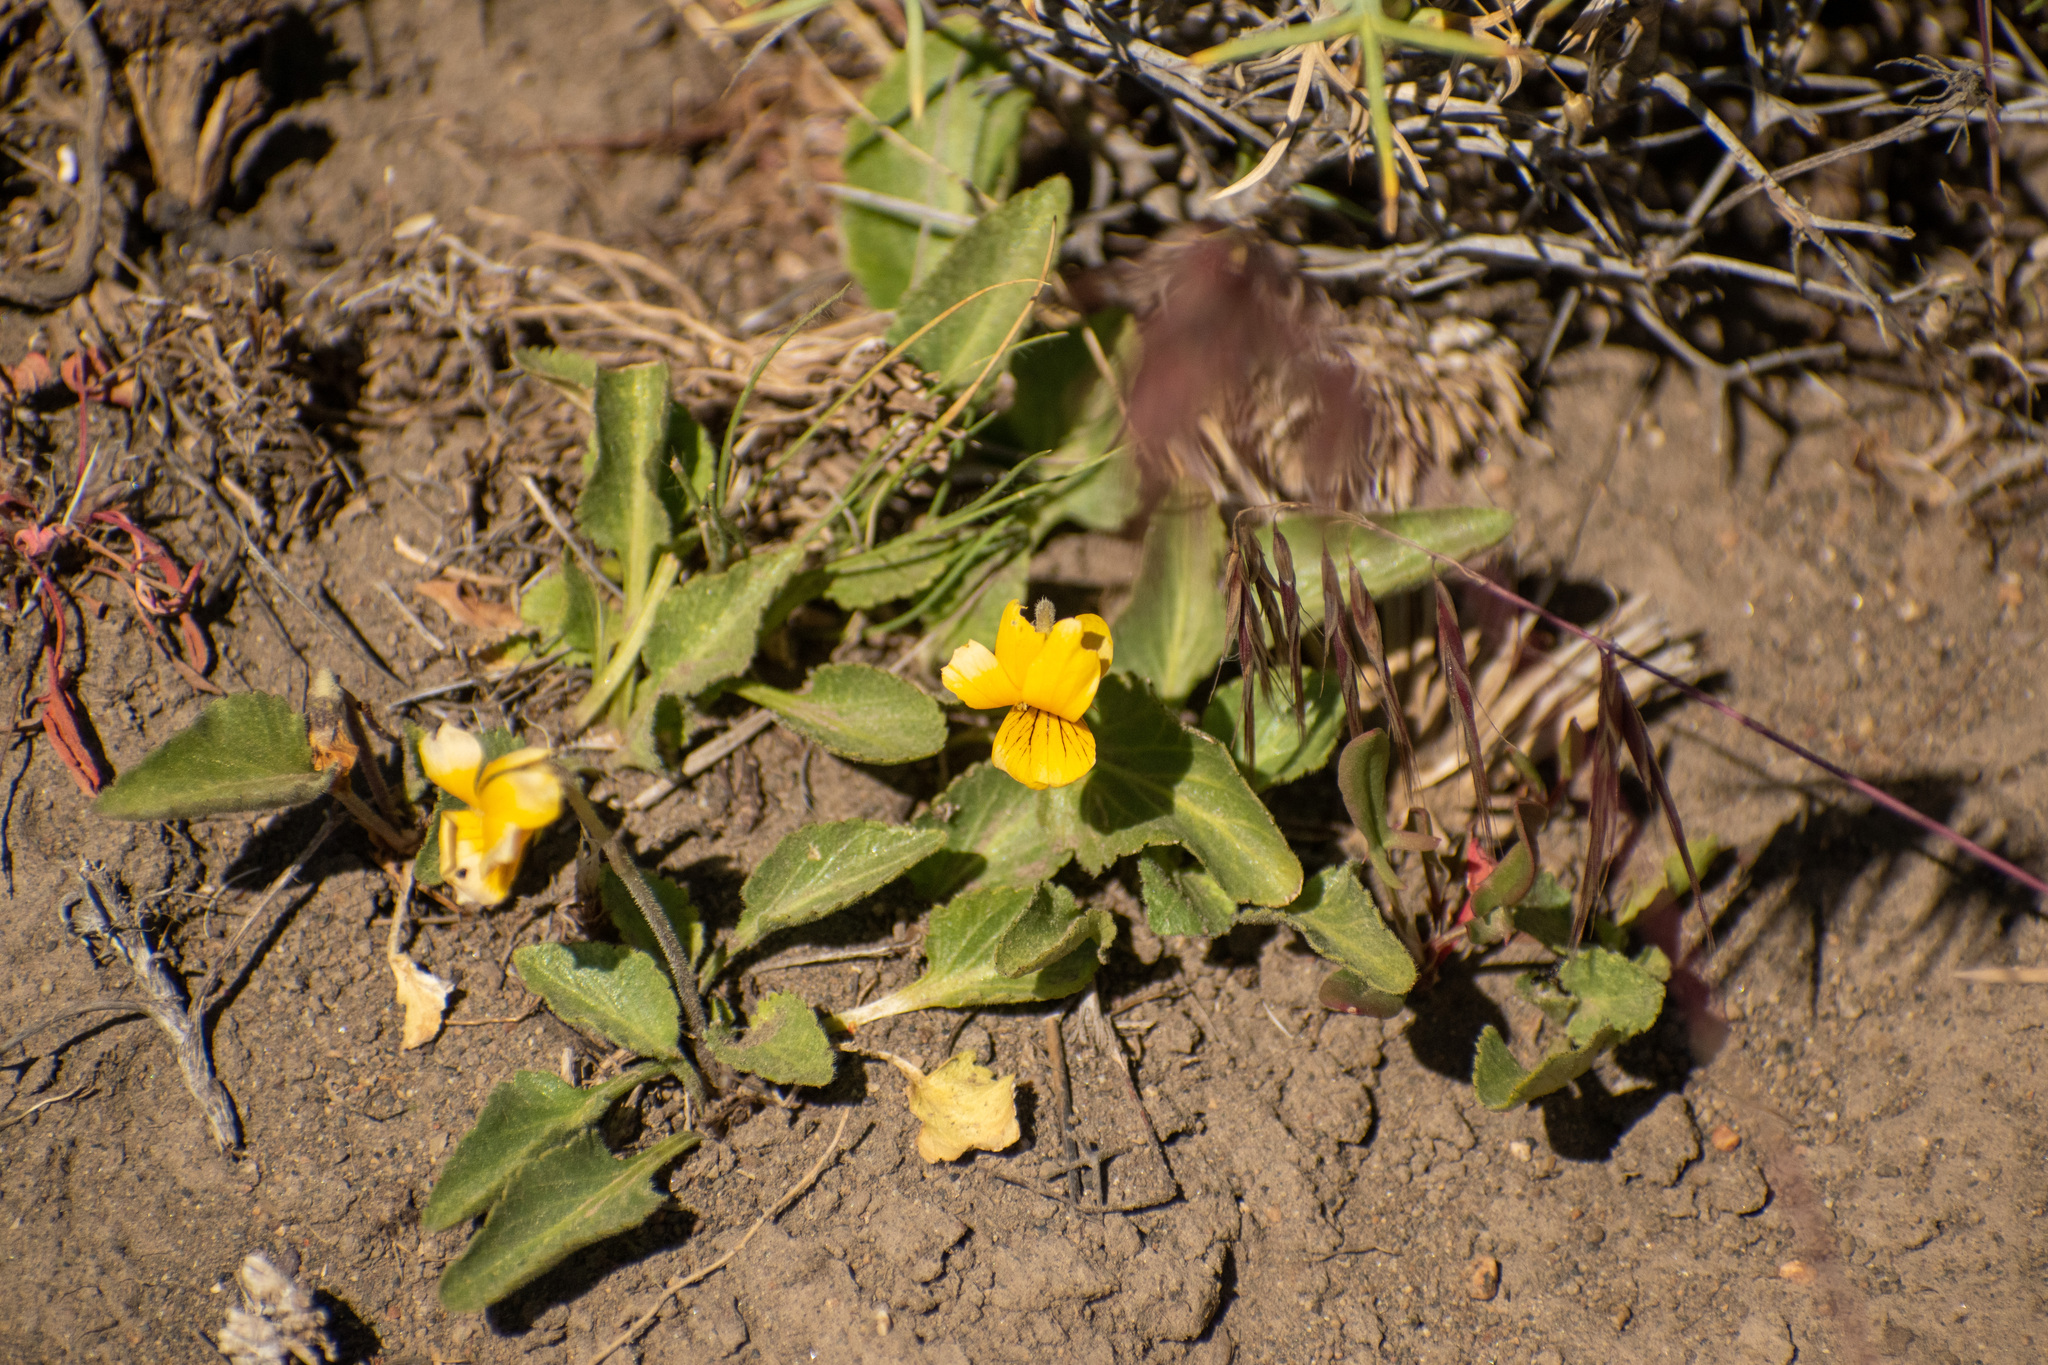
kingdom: Plantae
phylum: Tracheophyta
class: Magnoliopsida
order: Malpighiales
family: Violaceae
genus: Viola
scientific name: Viola maculata
